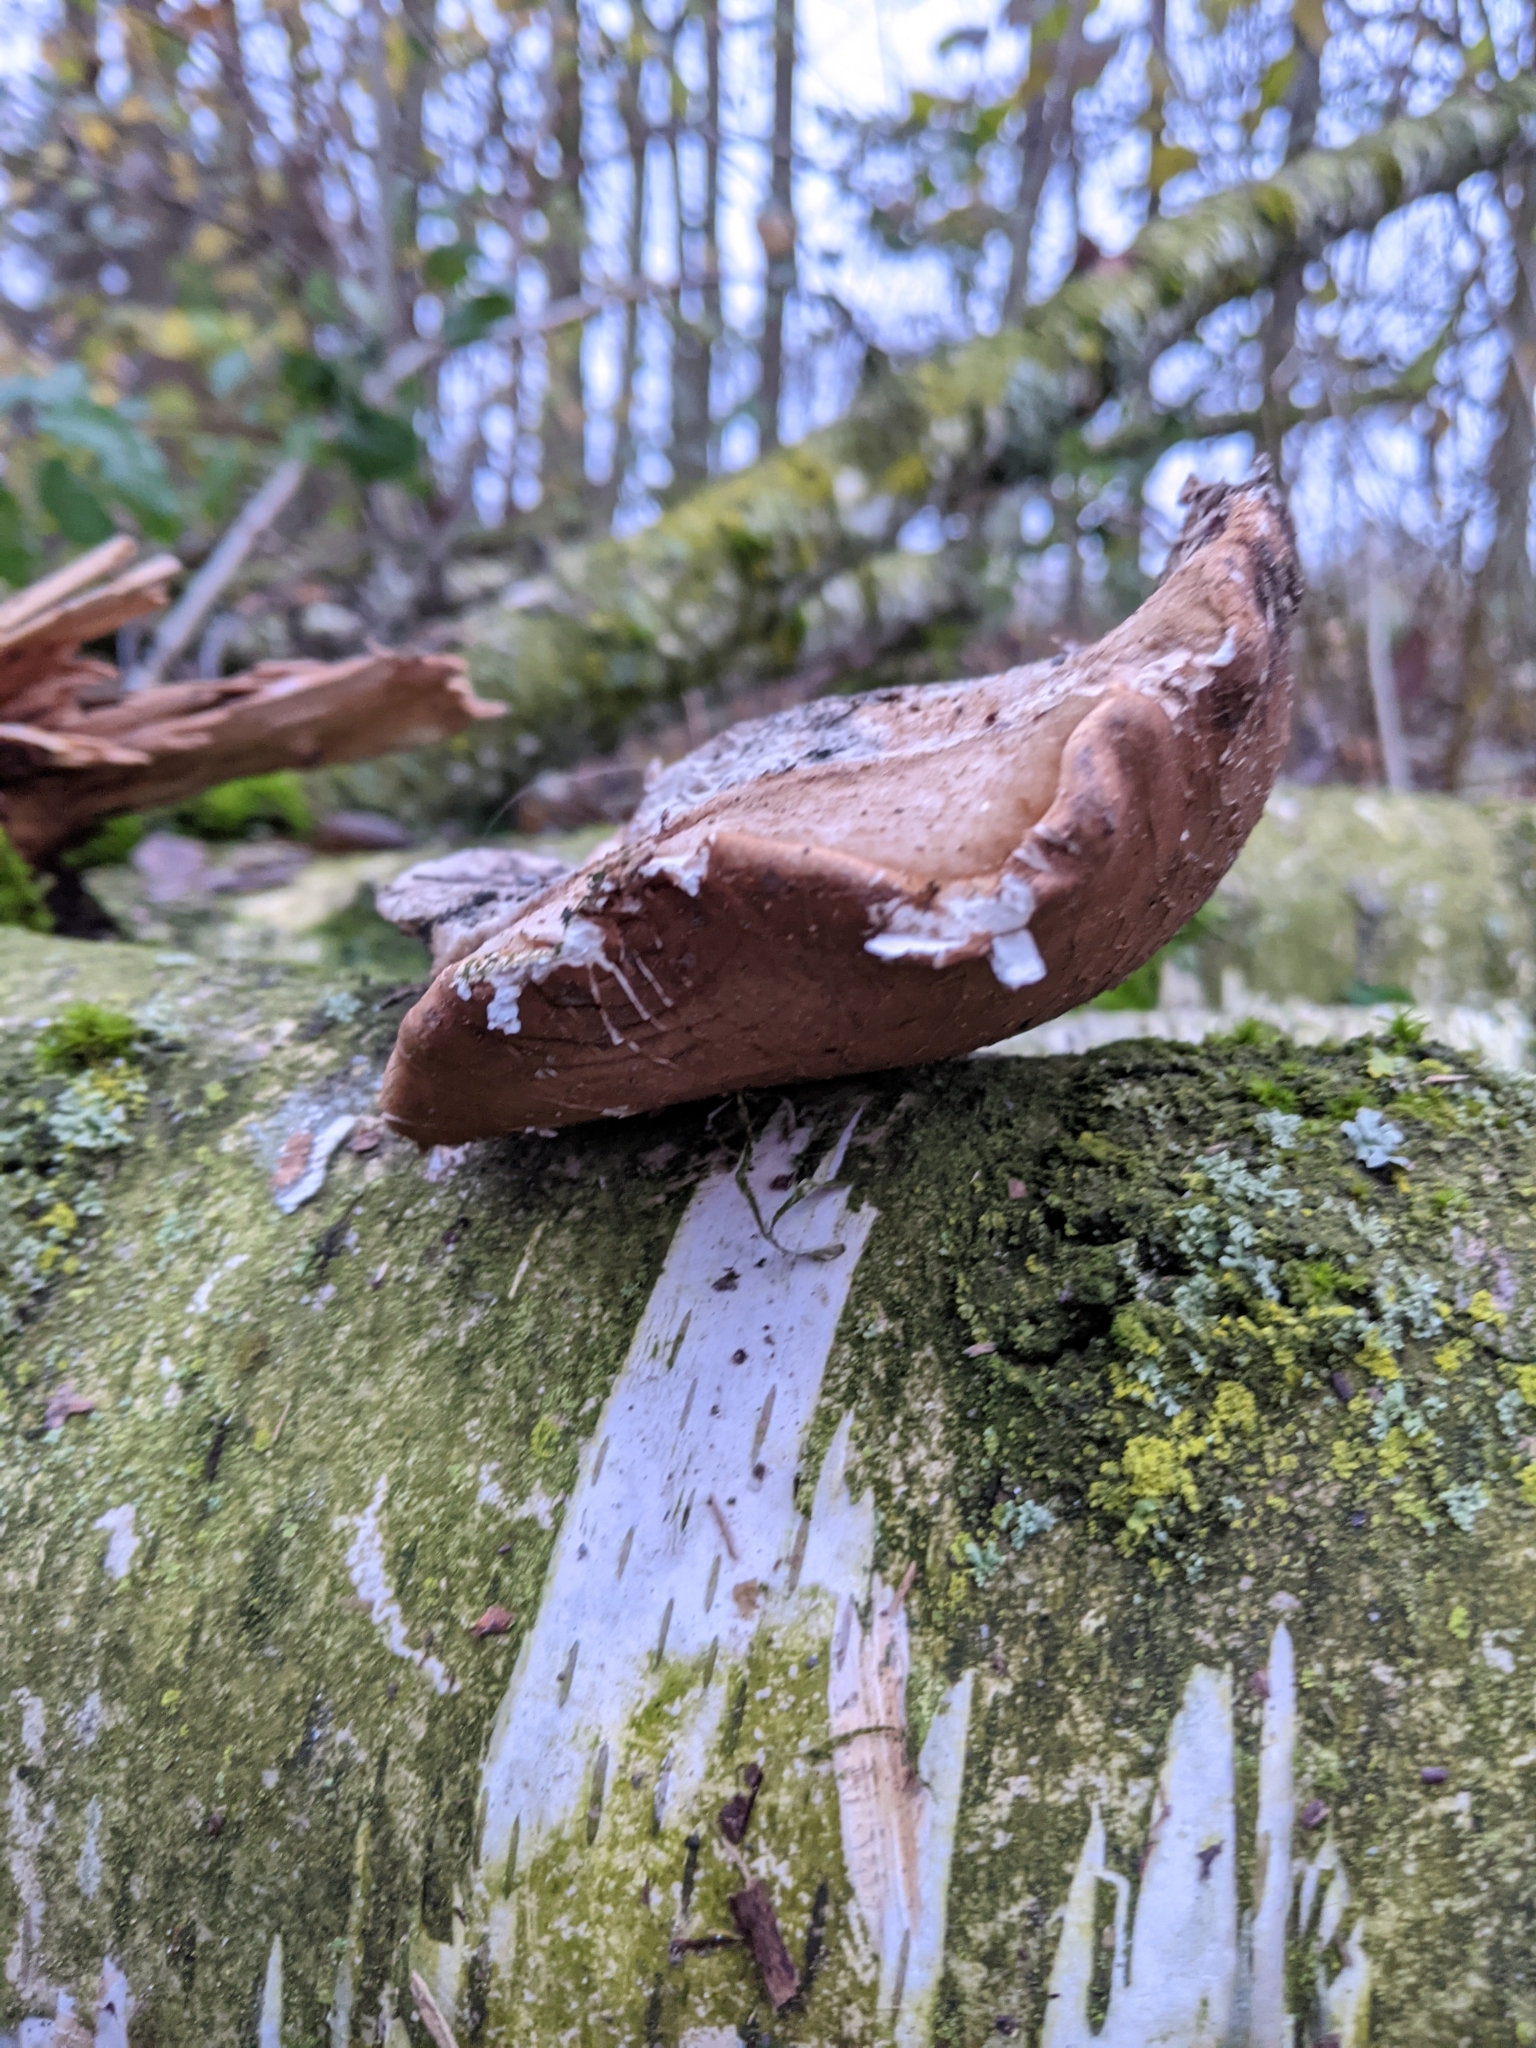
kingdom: Fungi
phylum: Basidiomycota
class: Agaricomycetes
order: Polyporales
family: Fomitopsidaceae
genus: Fomitopsis
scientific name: Fomitopsis betulina
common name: Birch polypore
